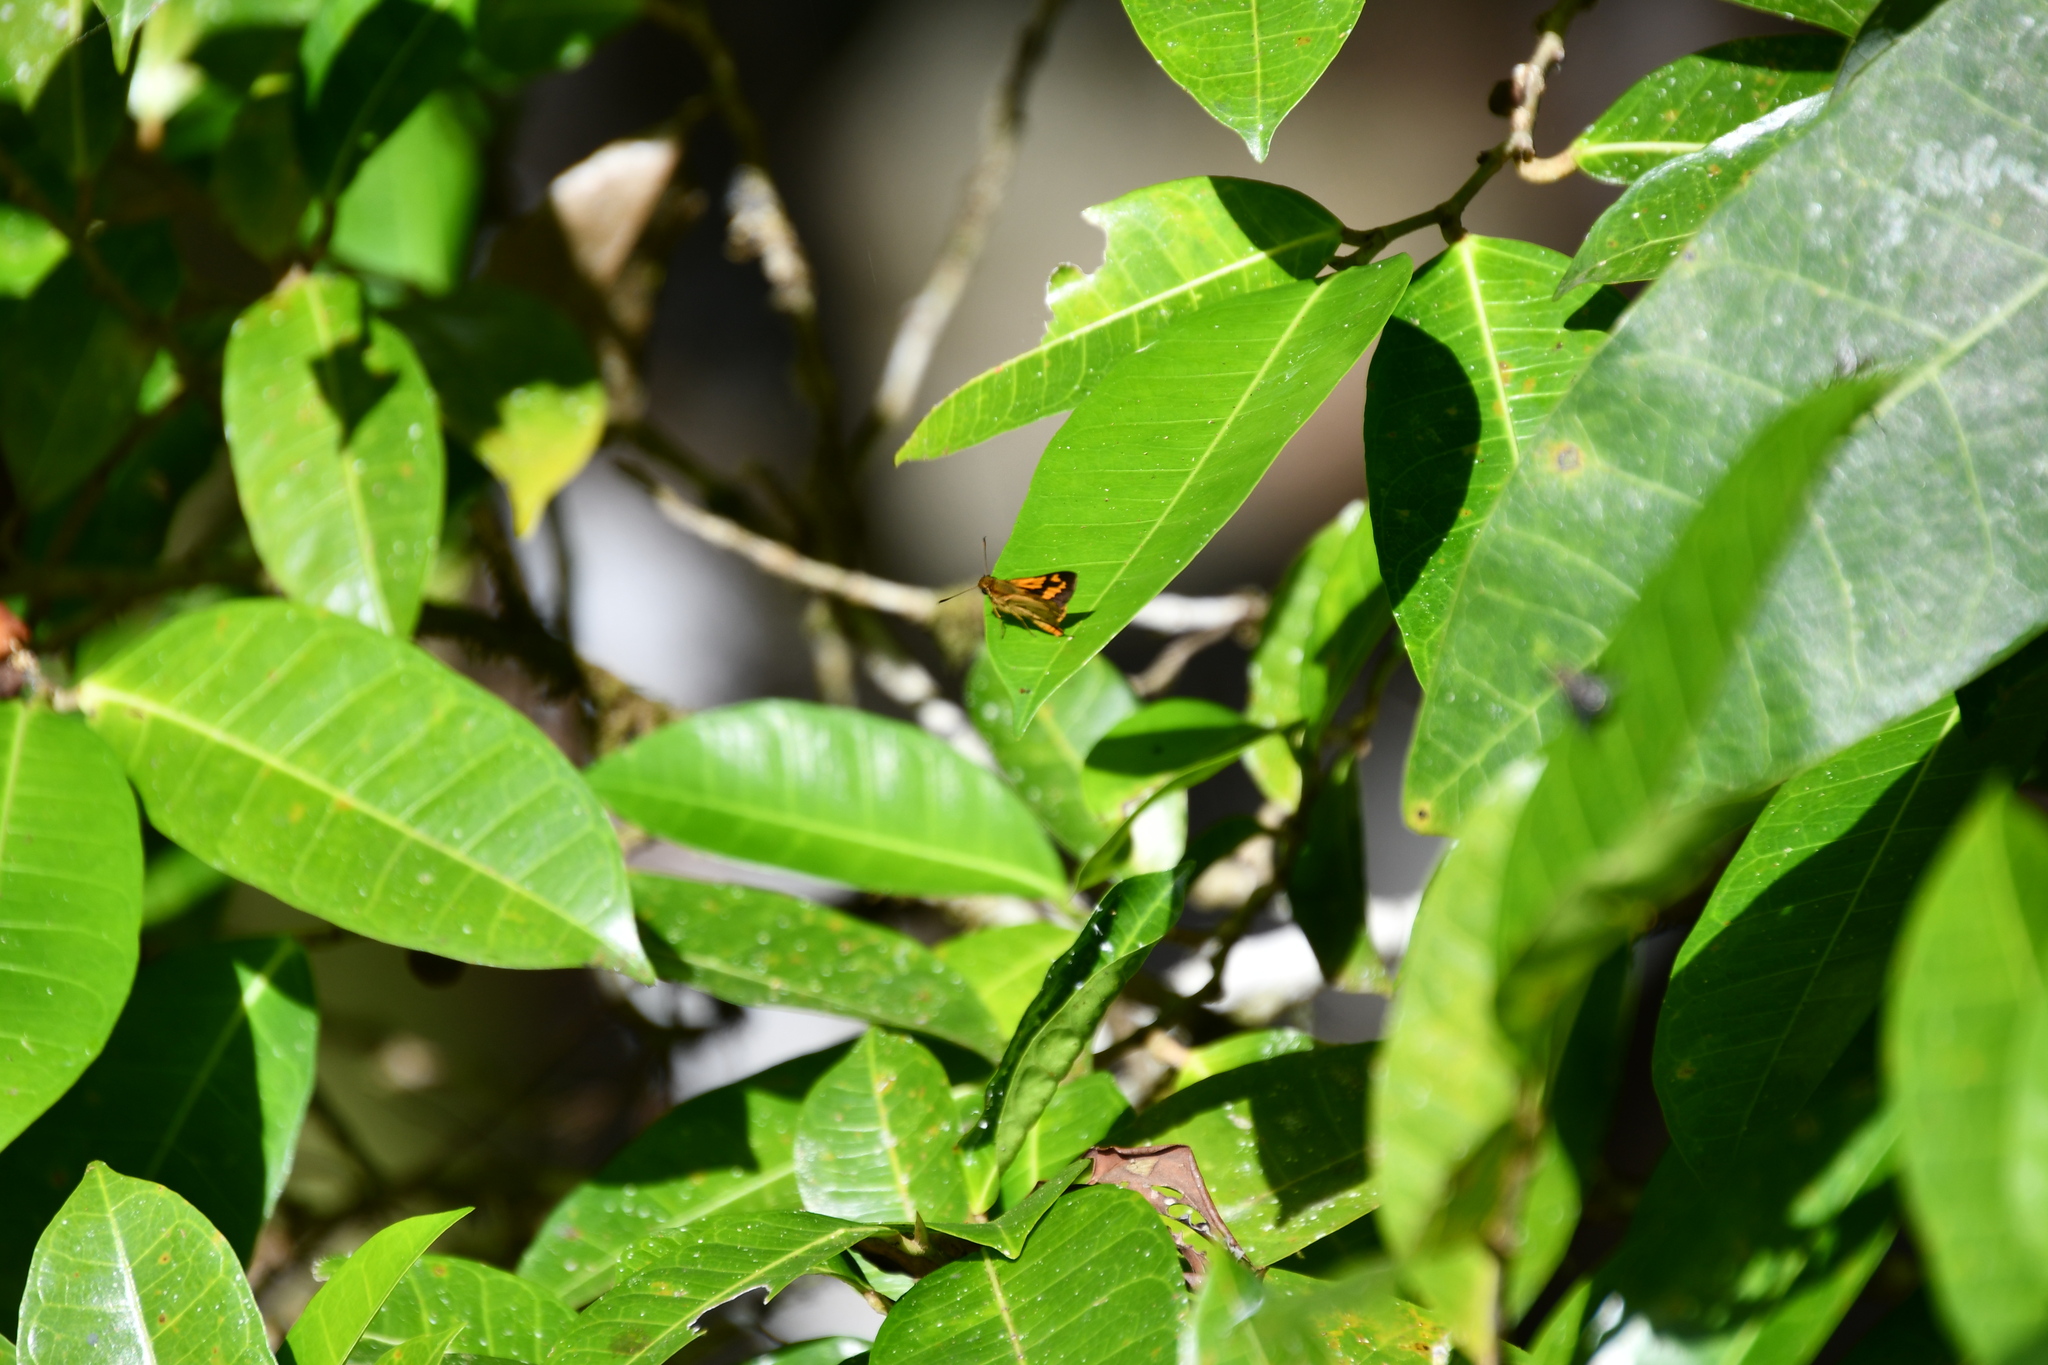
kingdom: Animalia
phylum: Arthropoda
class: Insecta
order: Lepidoptera
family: Hesperiidae
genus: Ocybadistes
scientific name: Ocybadistes ardea
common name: Dark orange dart
